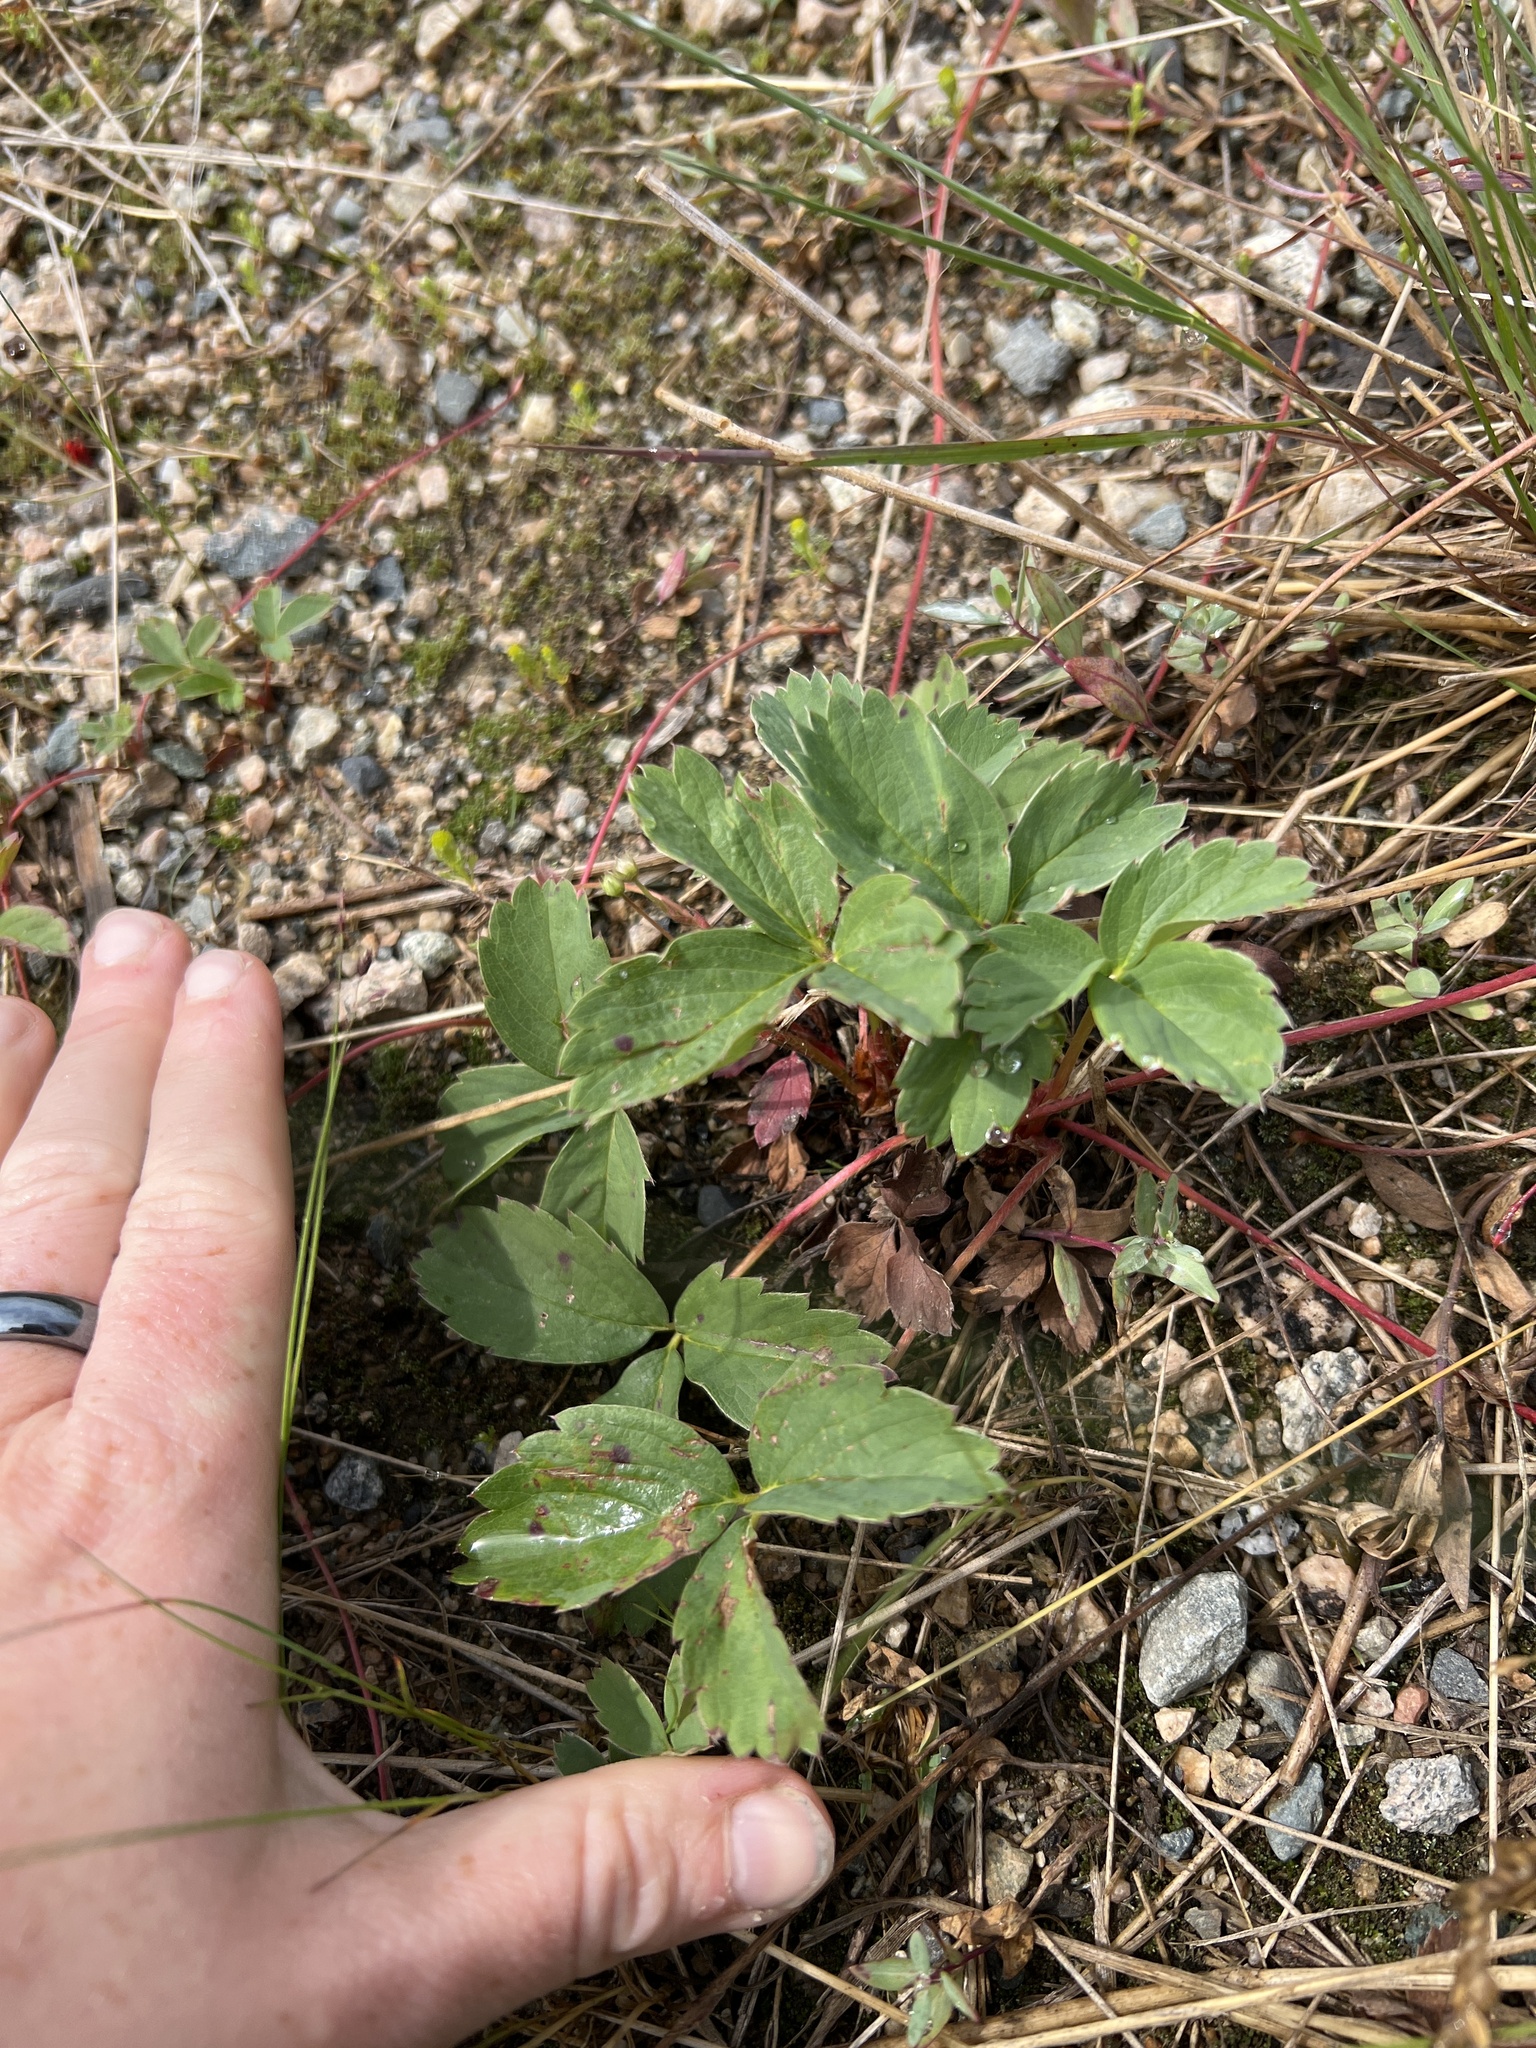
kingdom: Plantae
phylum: Tracheophyta
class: Magnoliopsida
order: Rosales
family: Rosaceae
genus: Fragaria
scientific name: Fragaria virginiana
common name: Thickleaved wild strawberry
